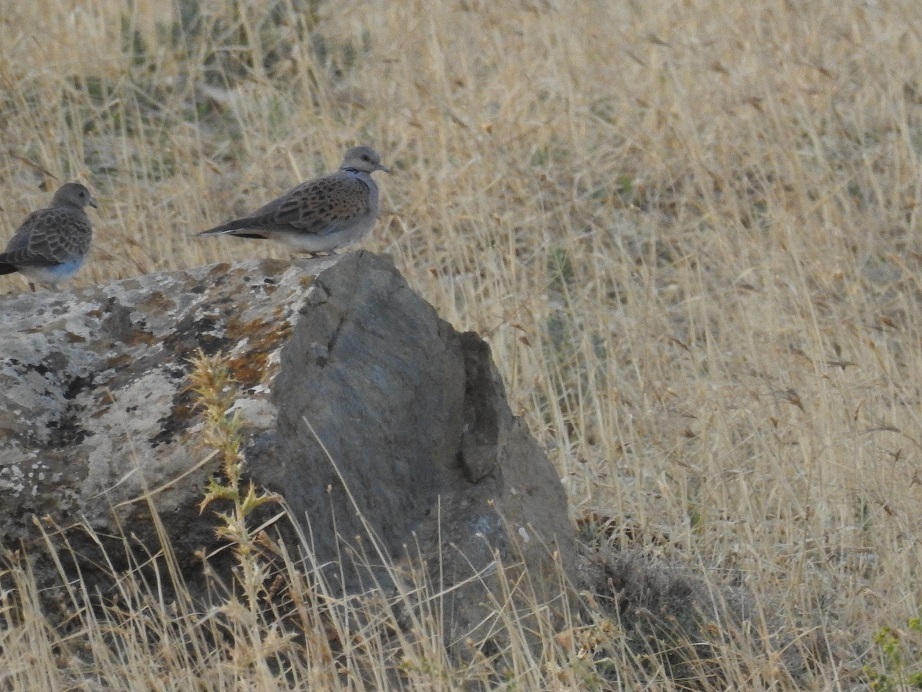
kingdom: Animalia
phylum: Chordata
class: Aves
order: Columbiformes
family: Columbidae
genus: Streptopelia
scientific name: Streptopelia turtur
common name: European turtle dove
